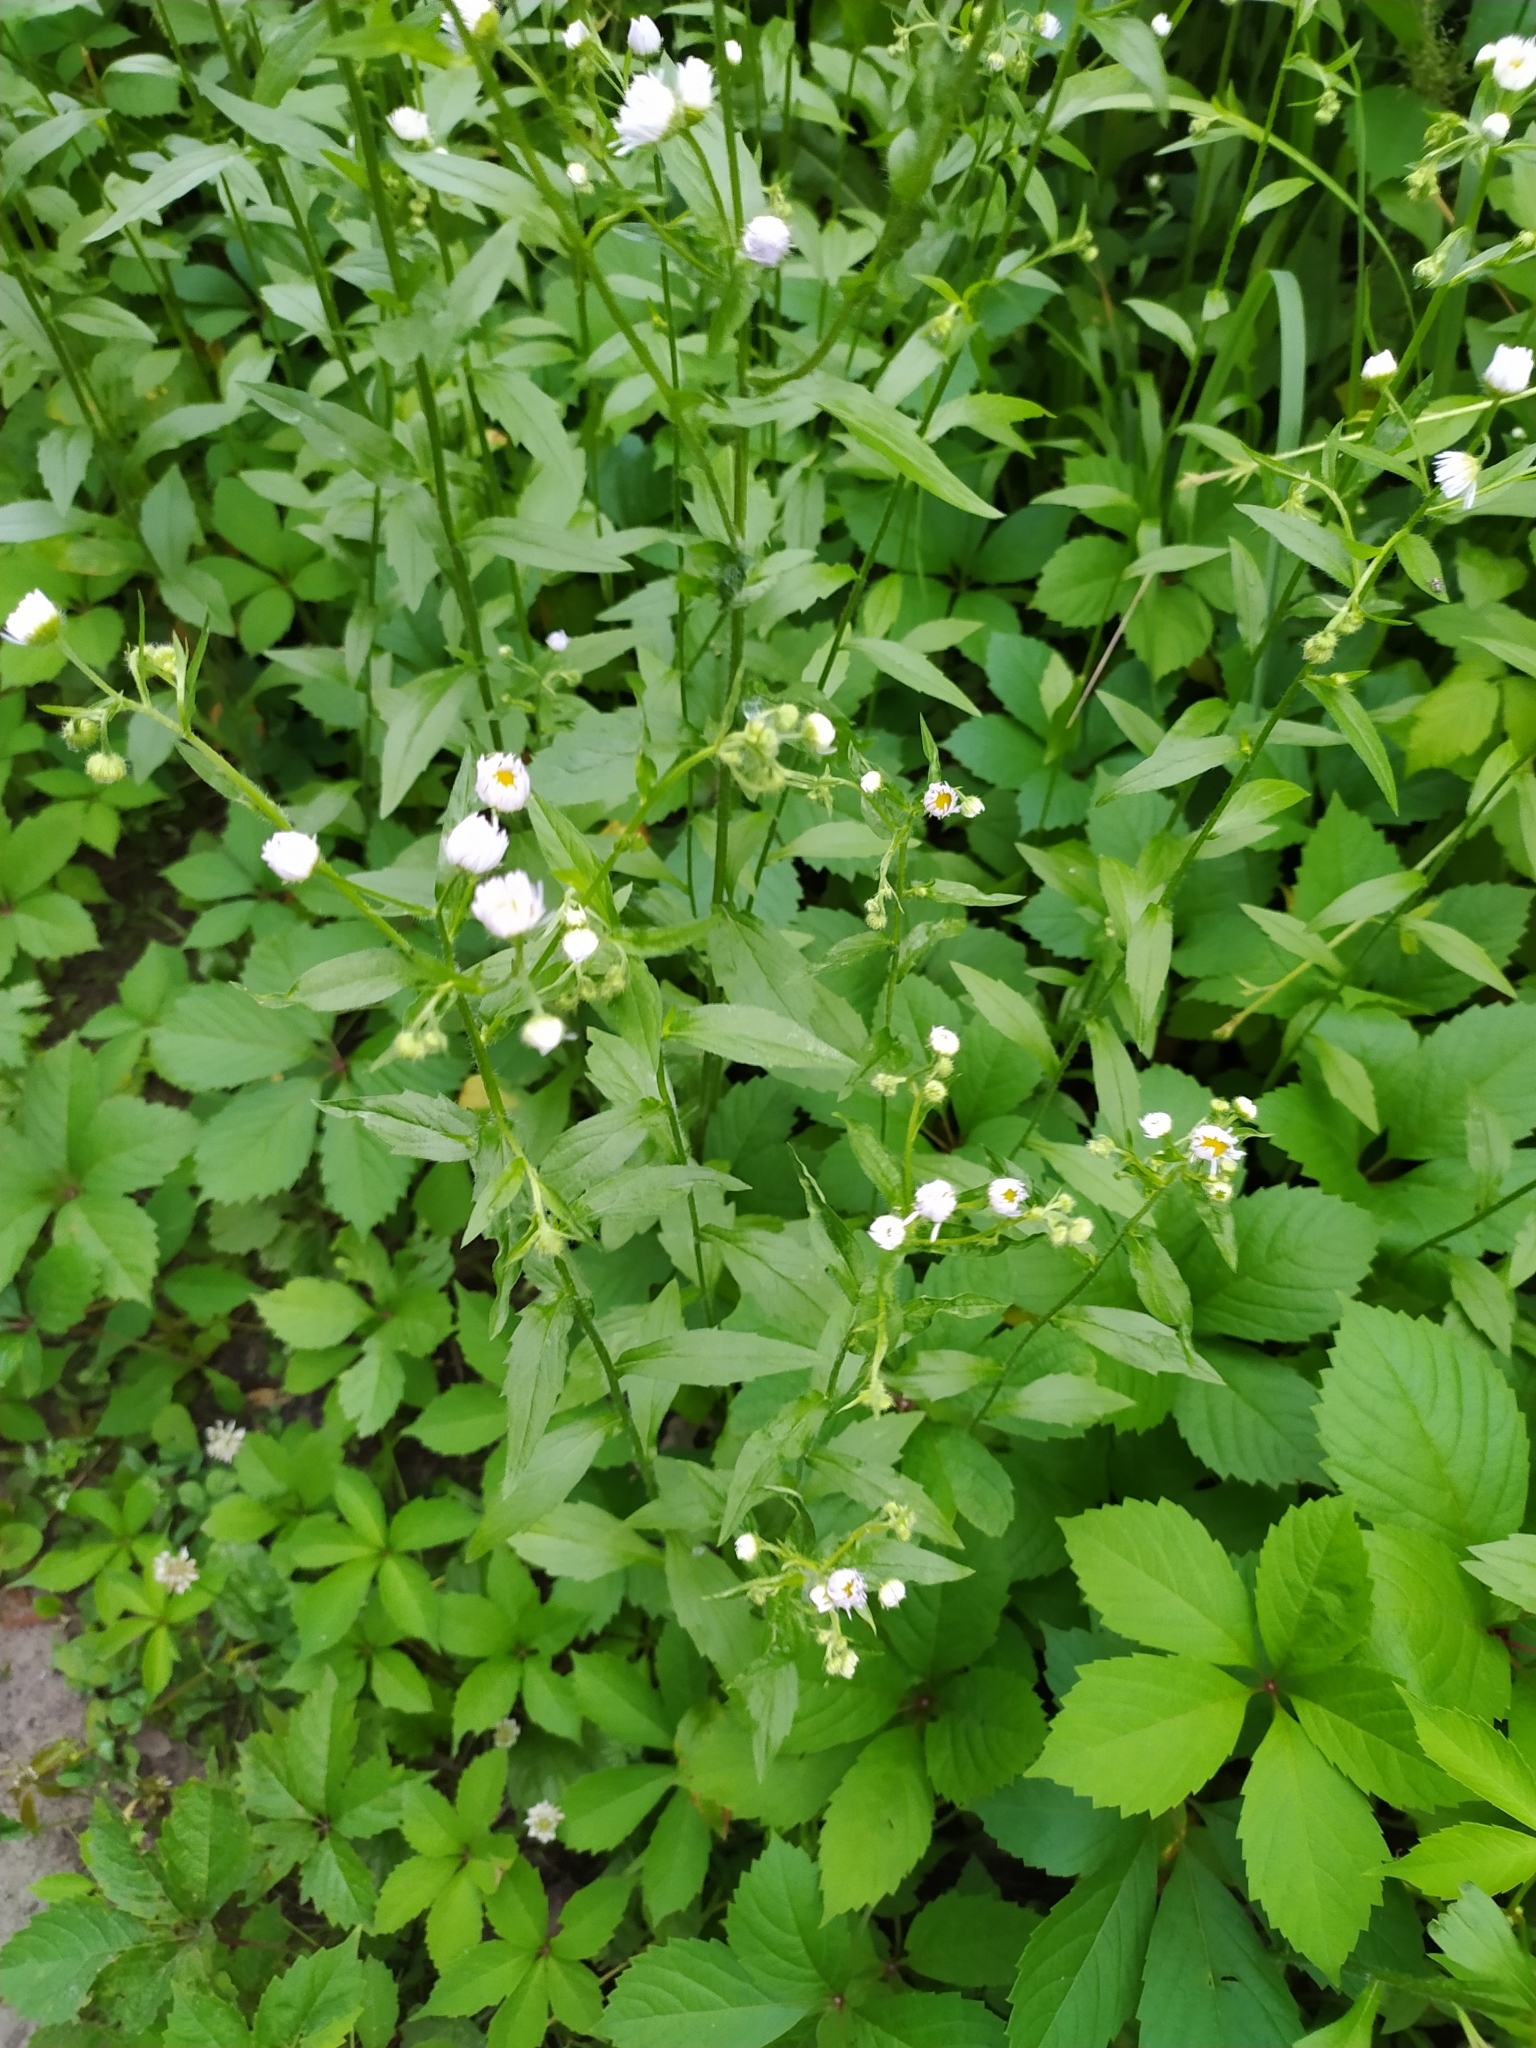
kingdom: Plantae
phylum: Tracheophyta
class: Magnoliopsida
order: Asterales
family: Asteraceae
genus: Erigeron
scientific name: Erigeron annuus
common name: Tall fleabane
